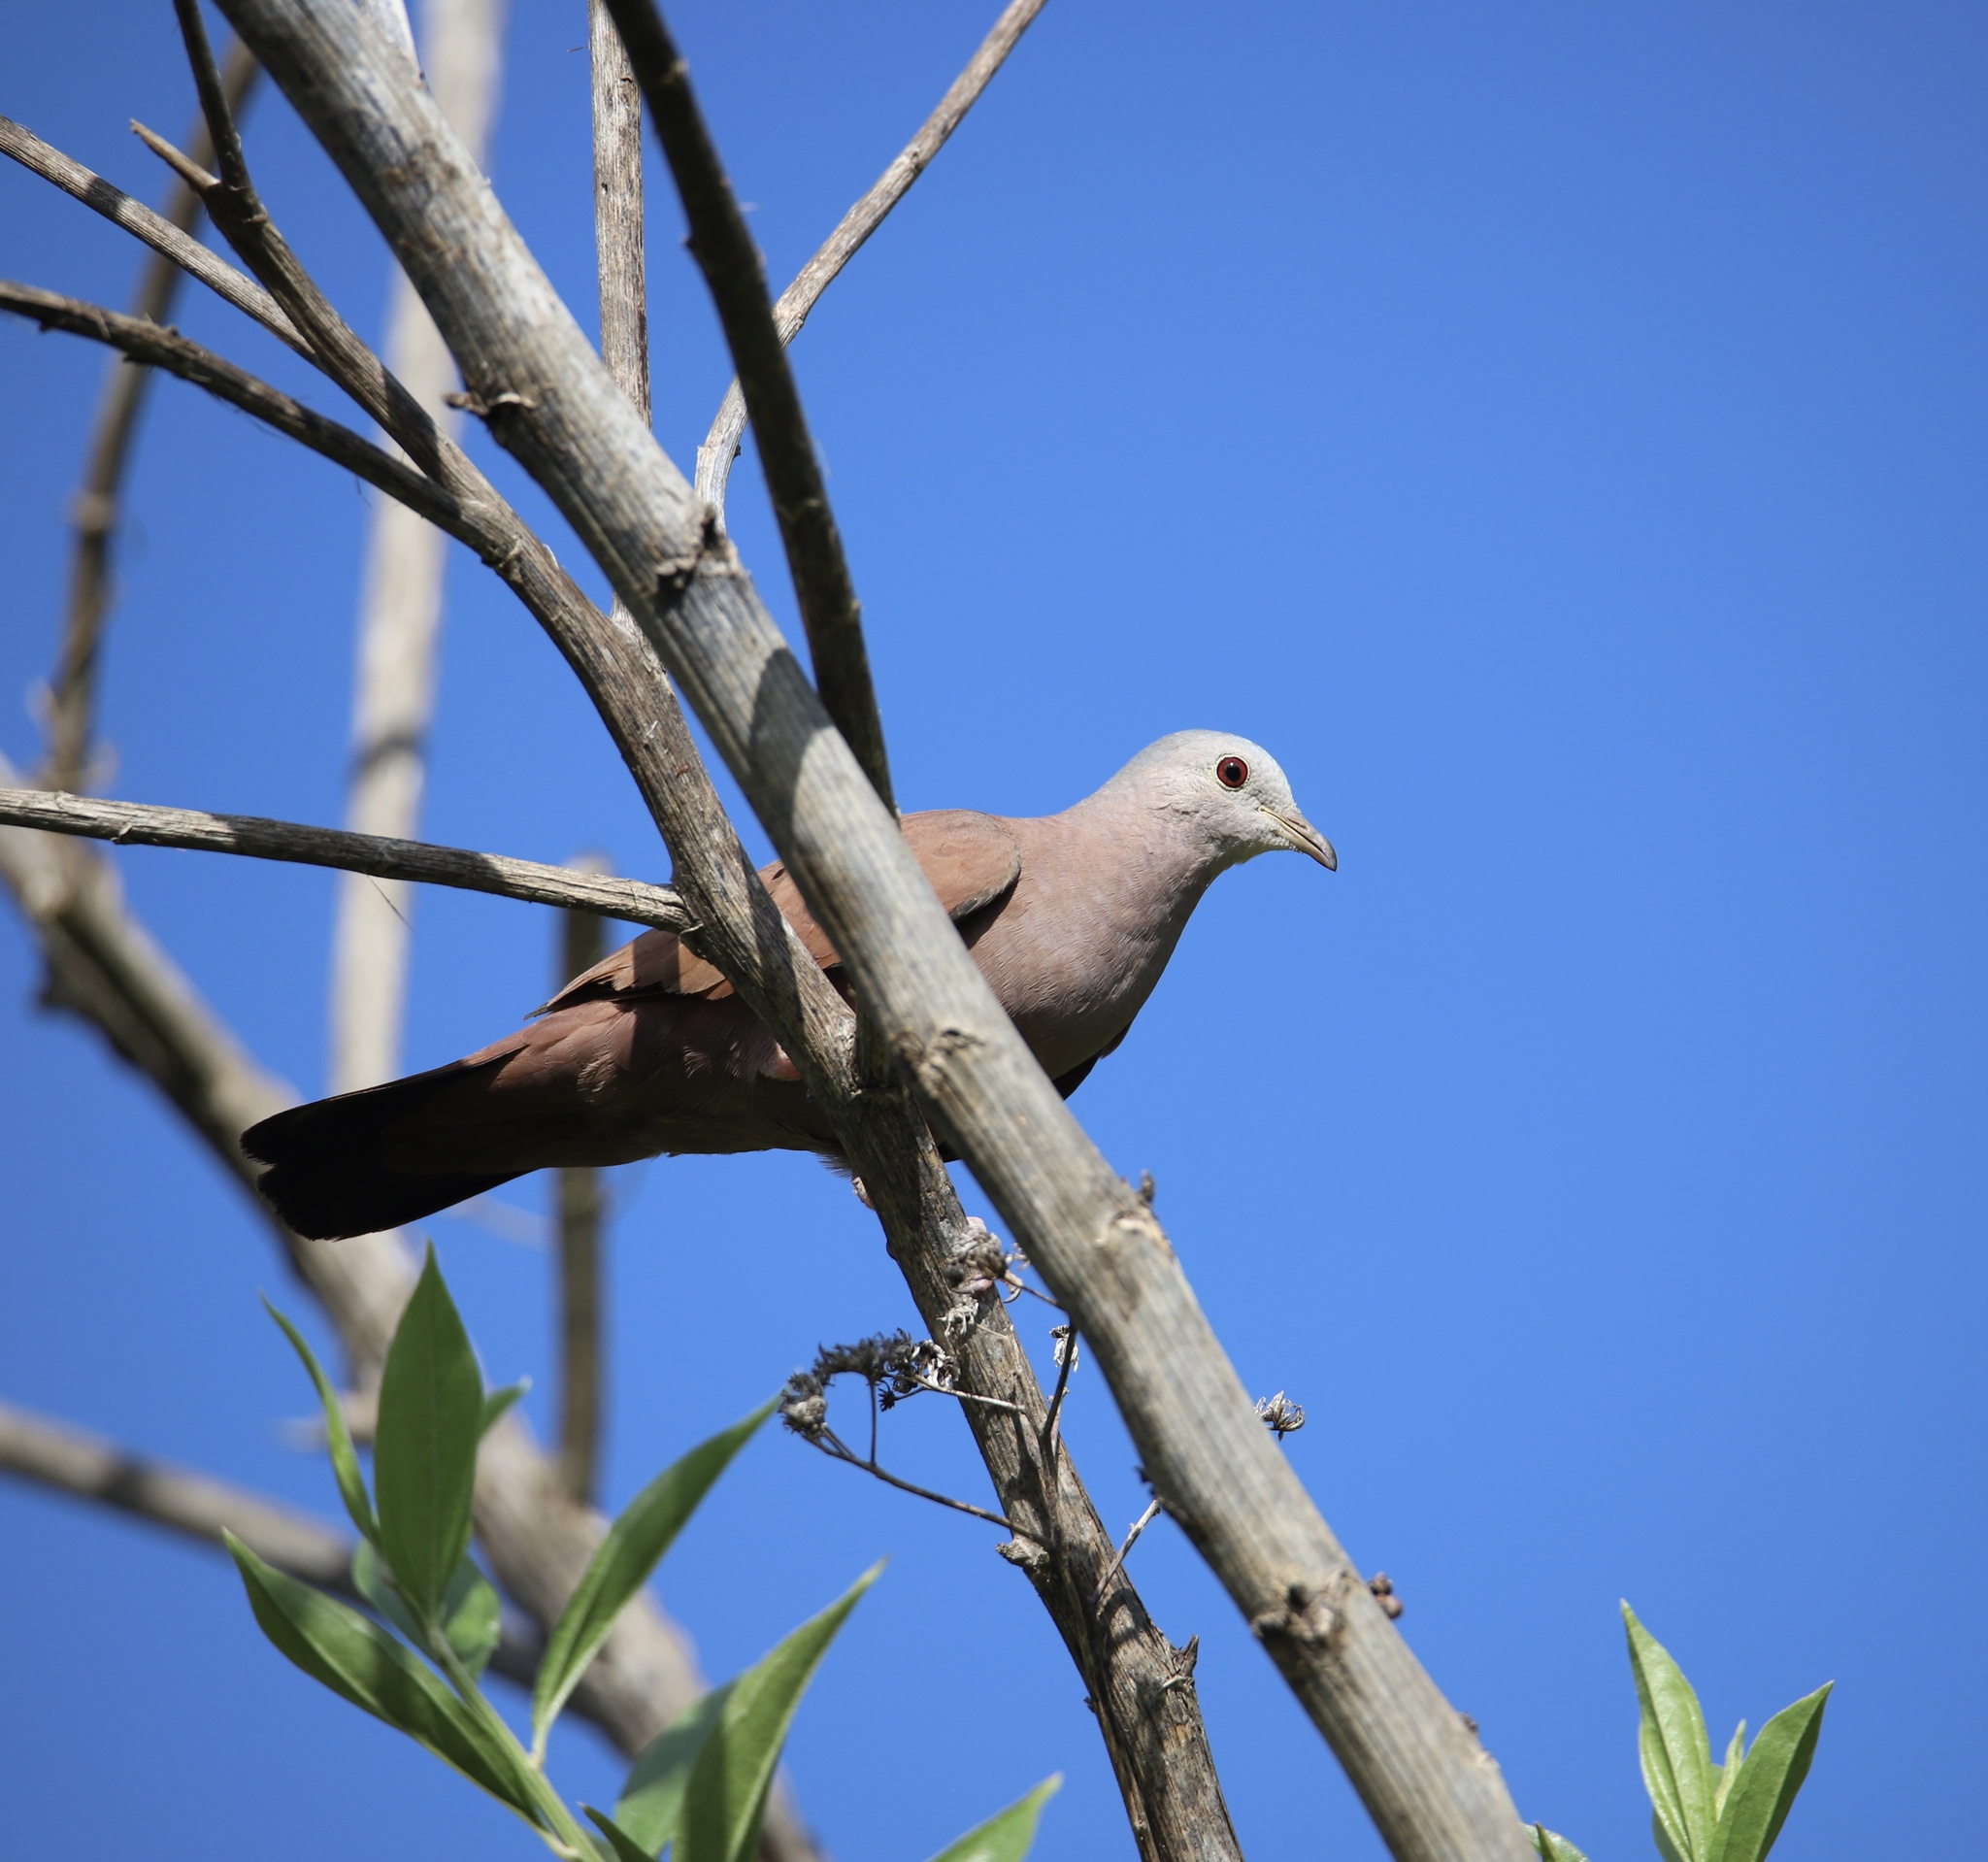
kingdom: Animalia
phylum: Chordata
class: Aves
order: Columbiformes
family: Columbidae
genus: Columbina
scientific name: Columbina talpacoti
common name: Ruddy ground dove
